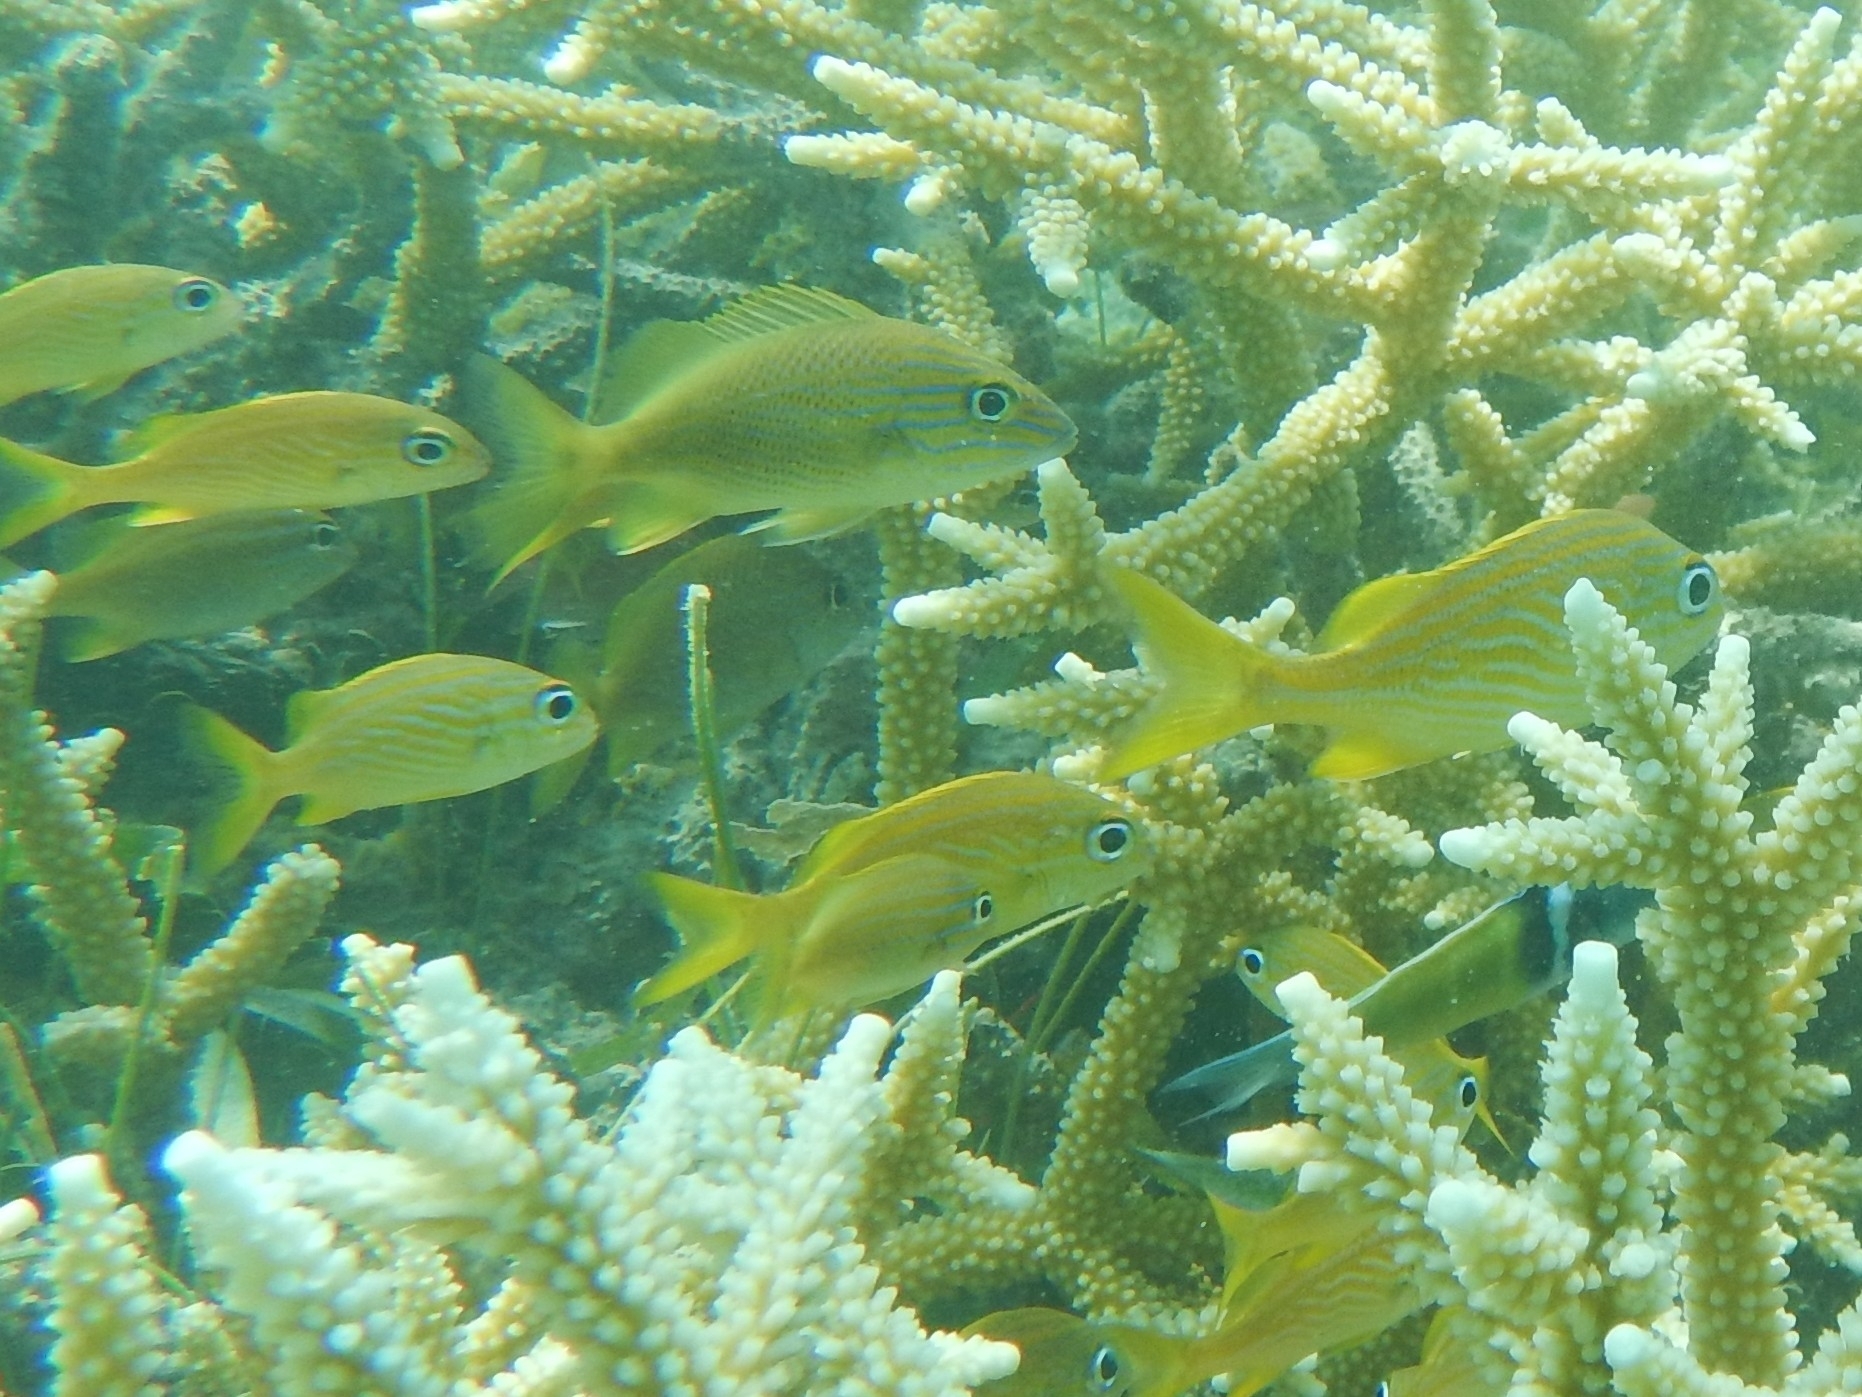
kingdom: Animalia
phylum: Chordata
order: Perciformes
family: Haemulidae
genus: Haemulon
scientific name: Haemulon flavolineatum
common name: French grunt
